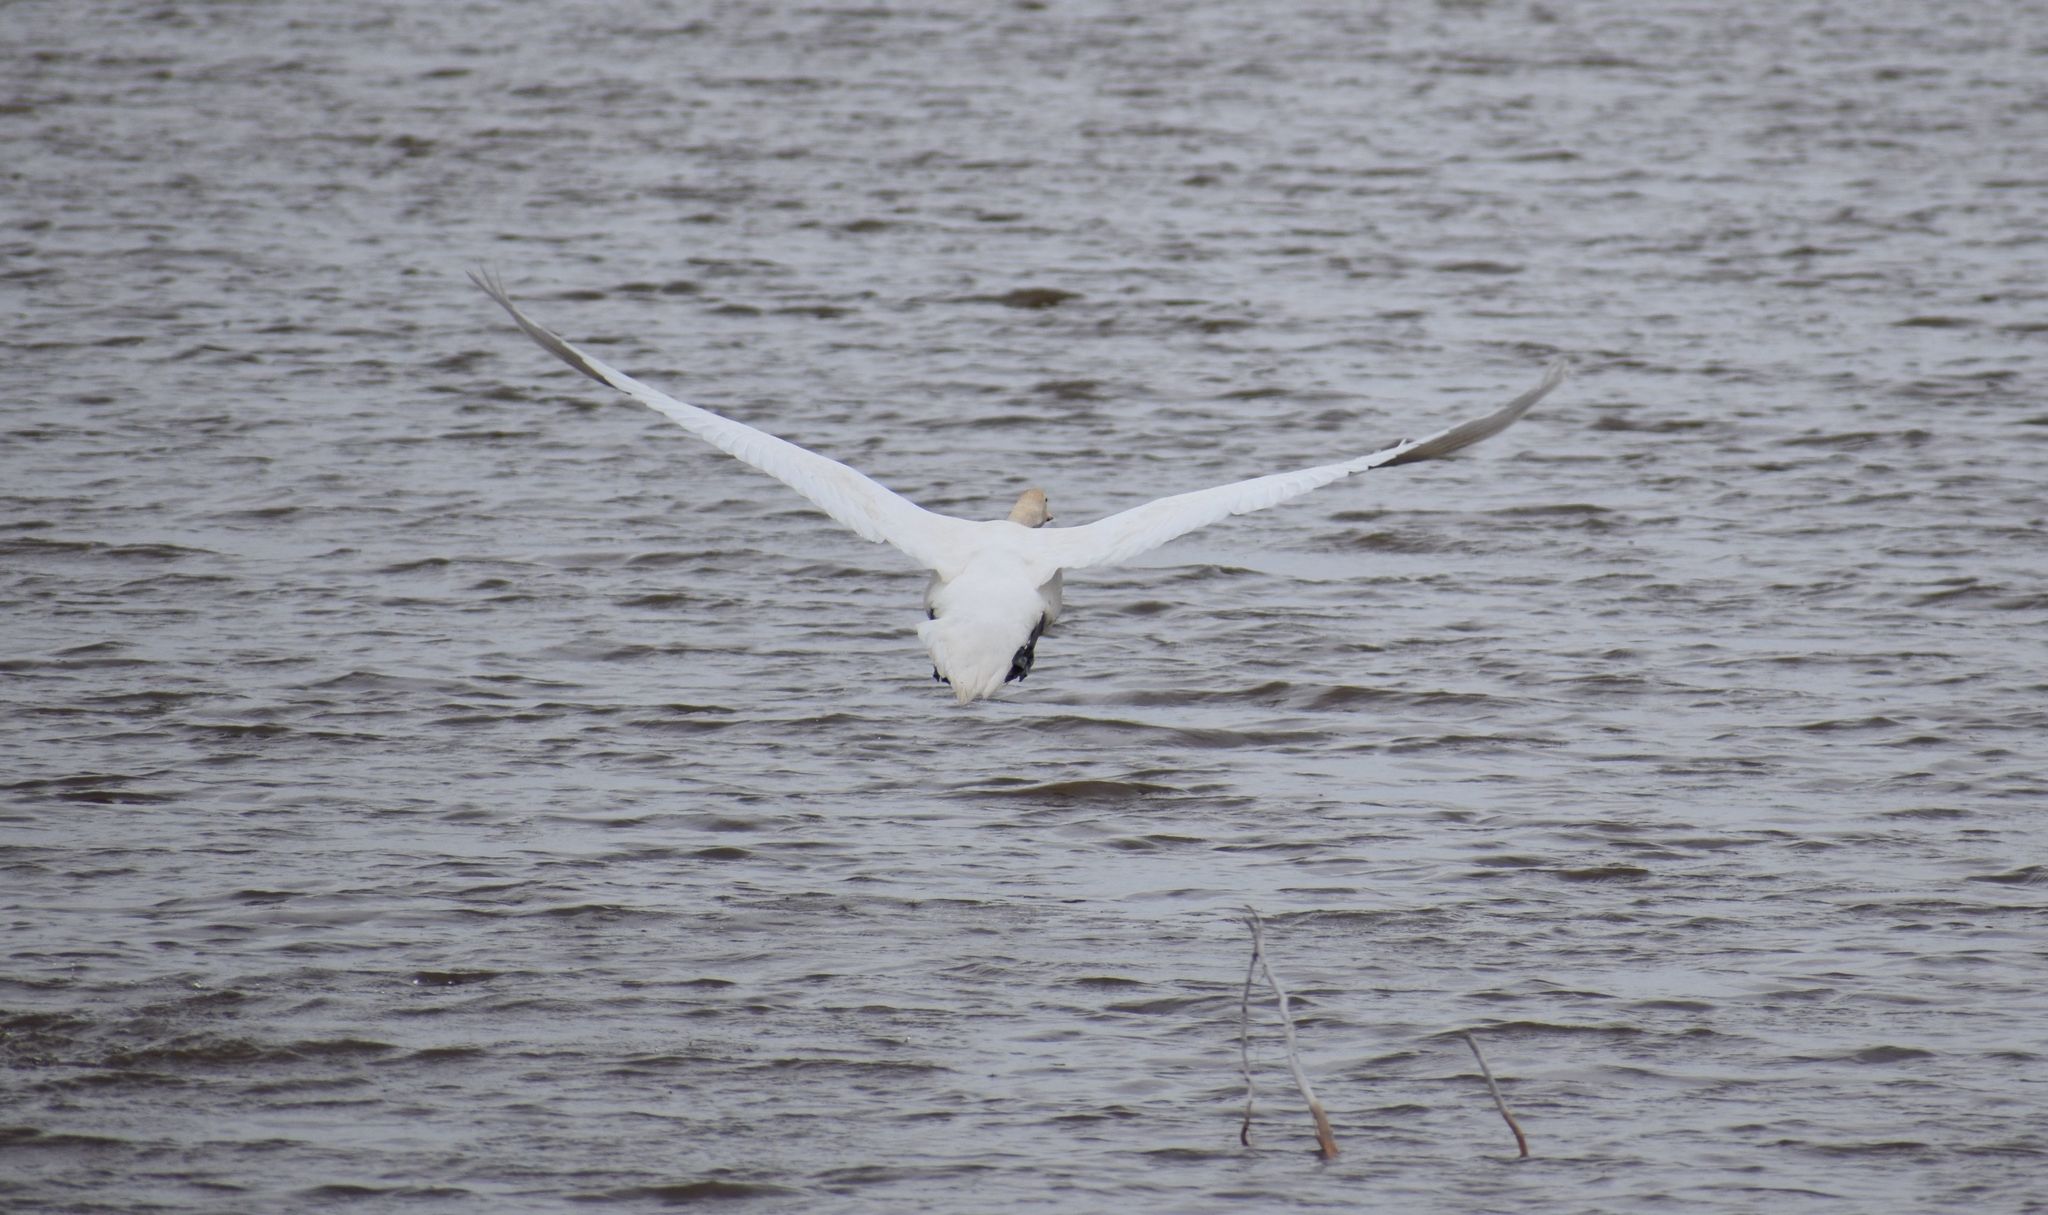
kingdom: Animalia
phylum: Chordata
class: Aves
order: Anseriformes
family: Anatidae
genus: Cygnus
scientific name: Cygnus olor
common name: Mute swan
